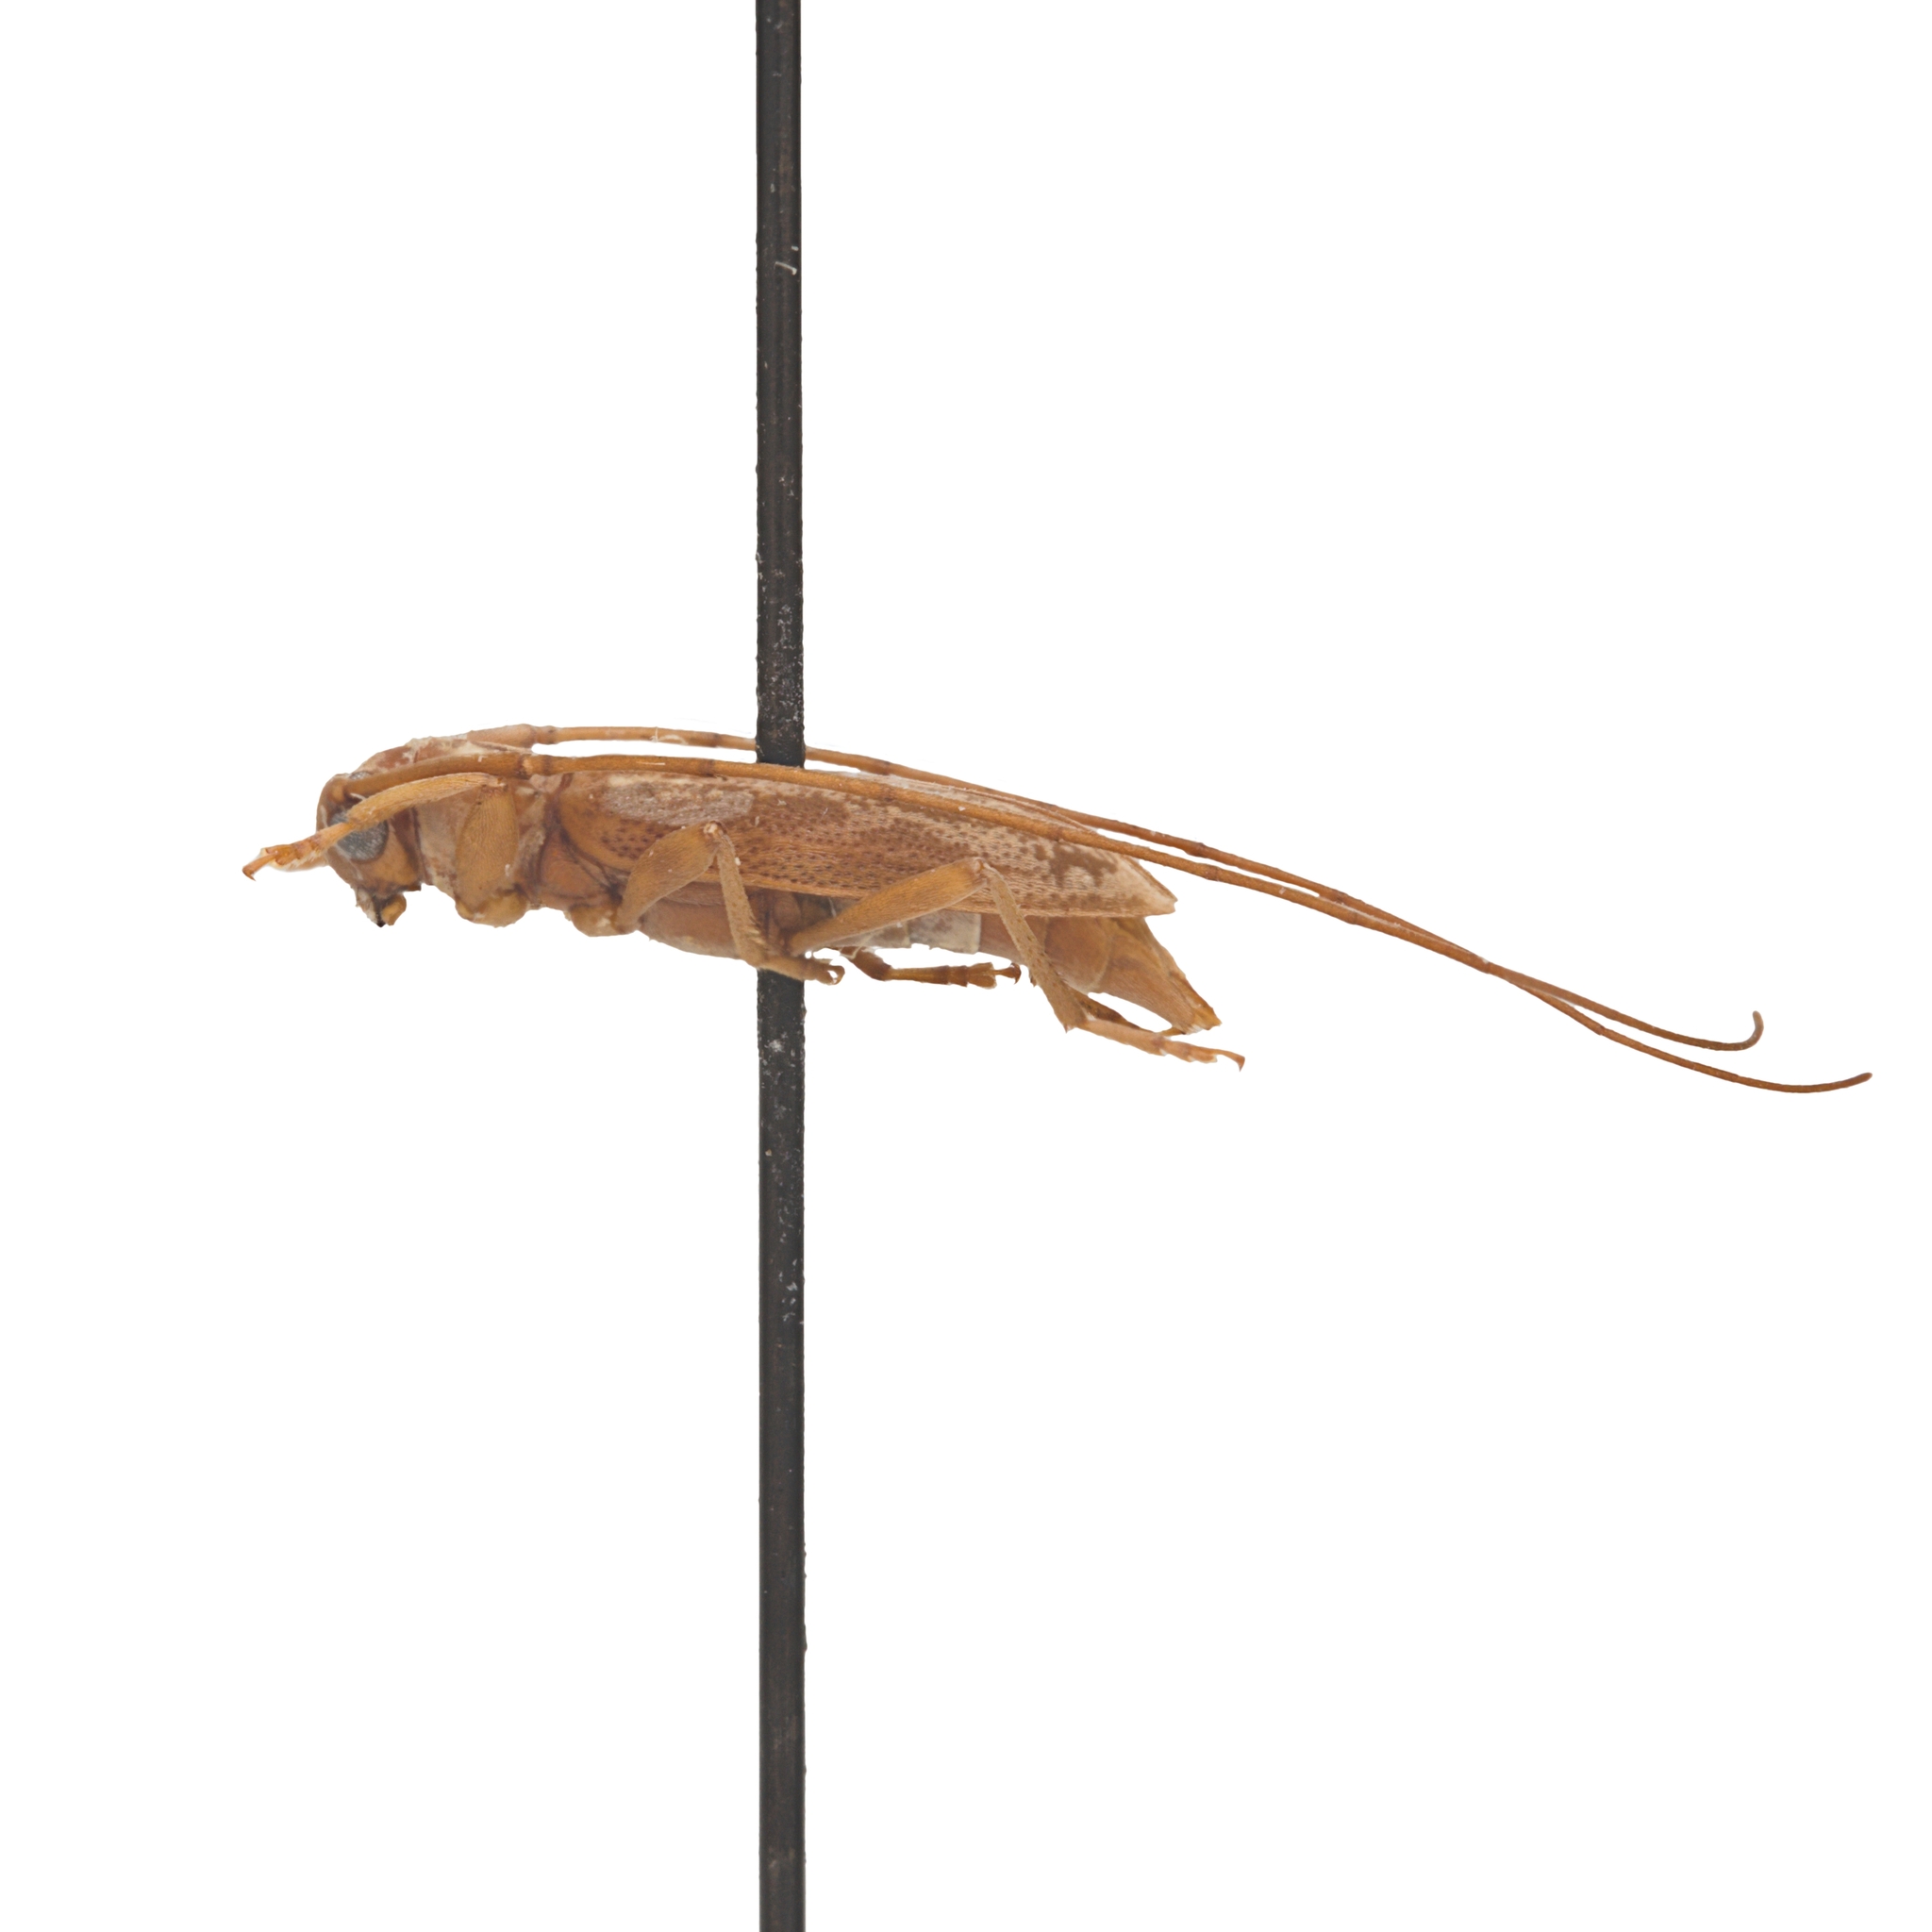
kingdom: Animalia
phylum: Arthropoda
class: Insecta
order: Coleoptera
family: Cerambycidae
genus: Lepturges
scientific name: Lepturges vogti
